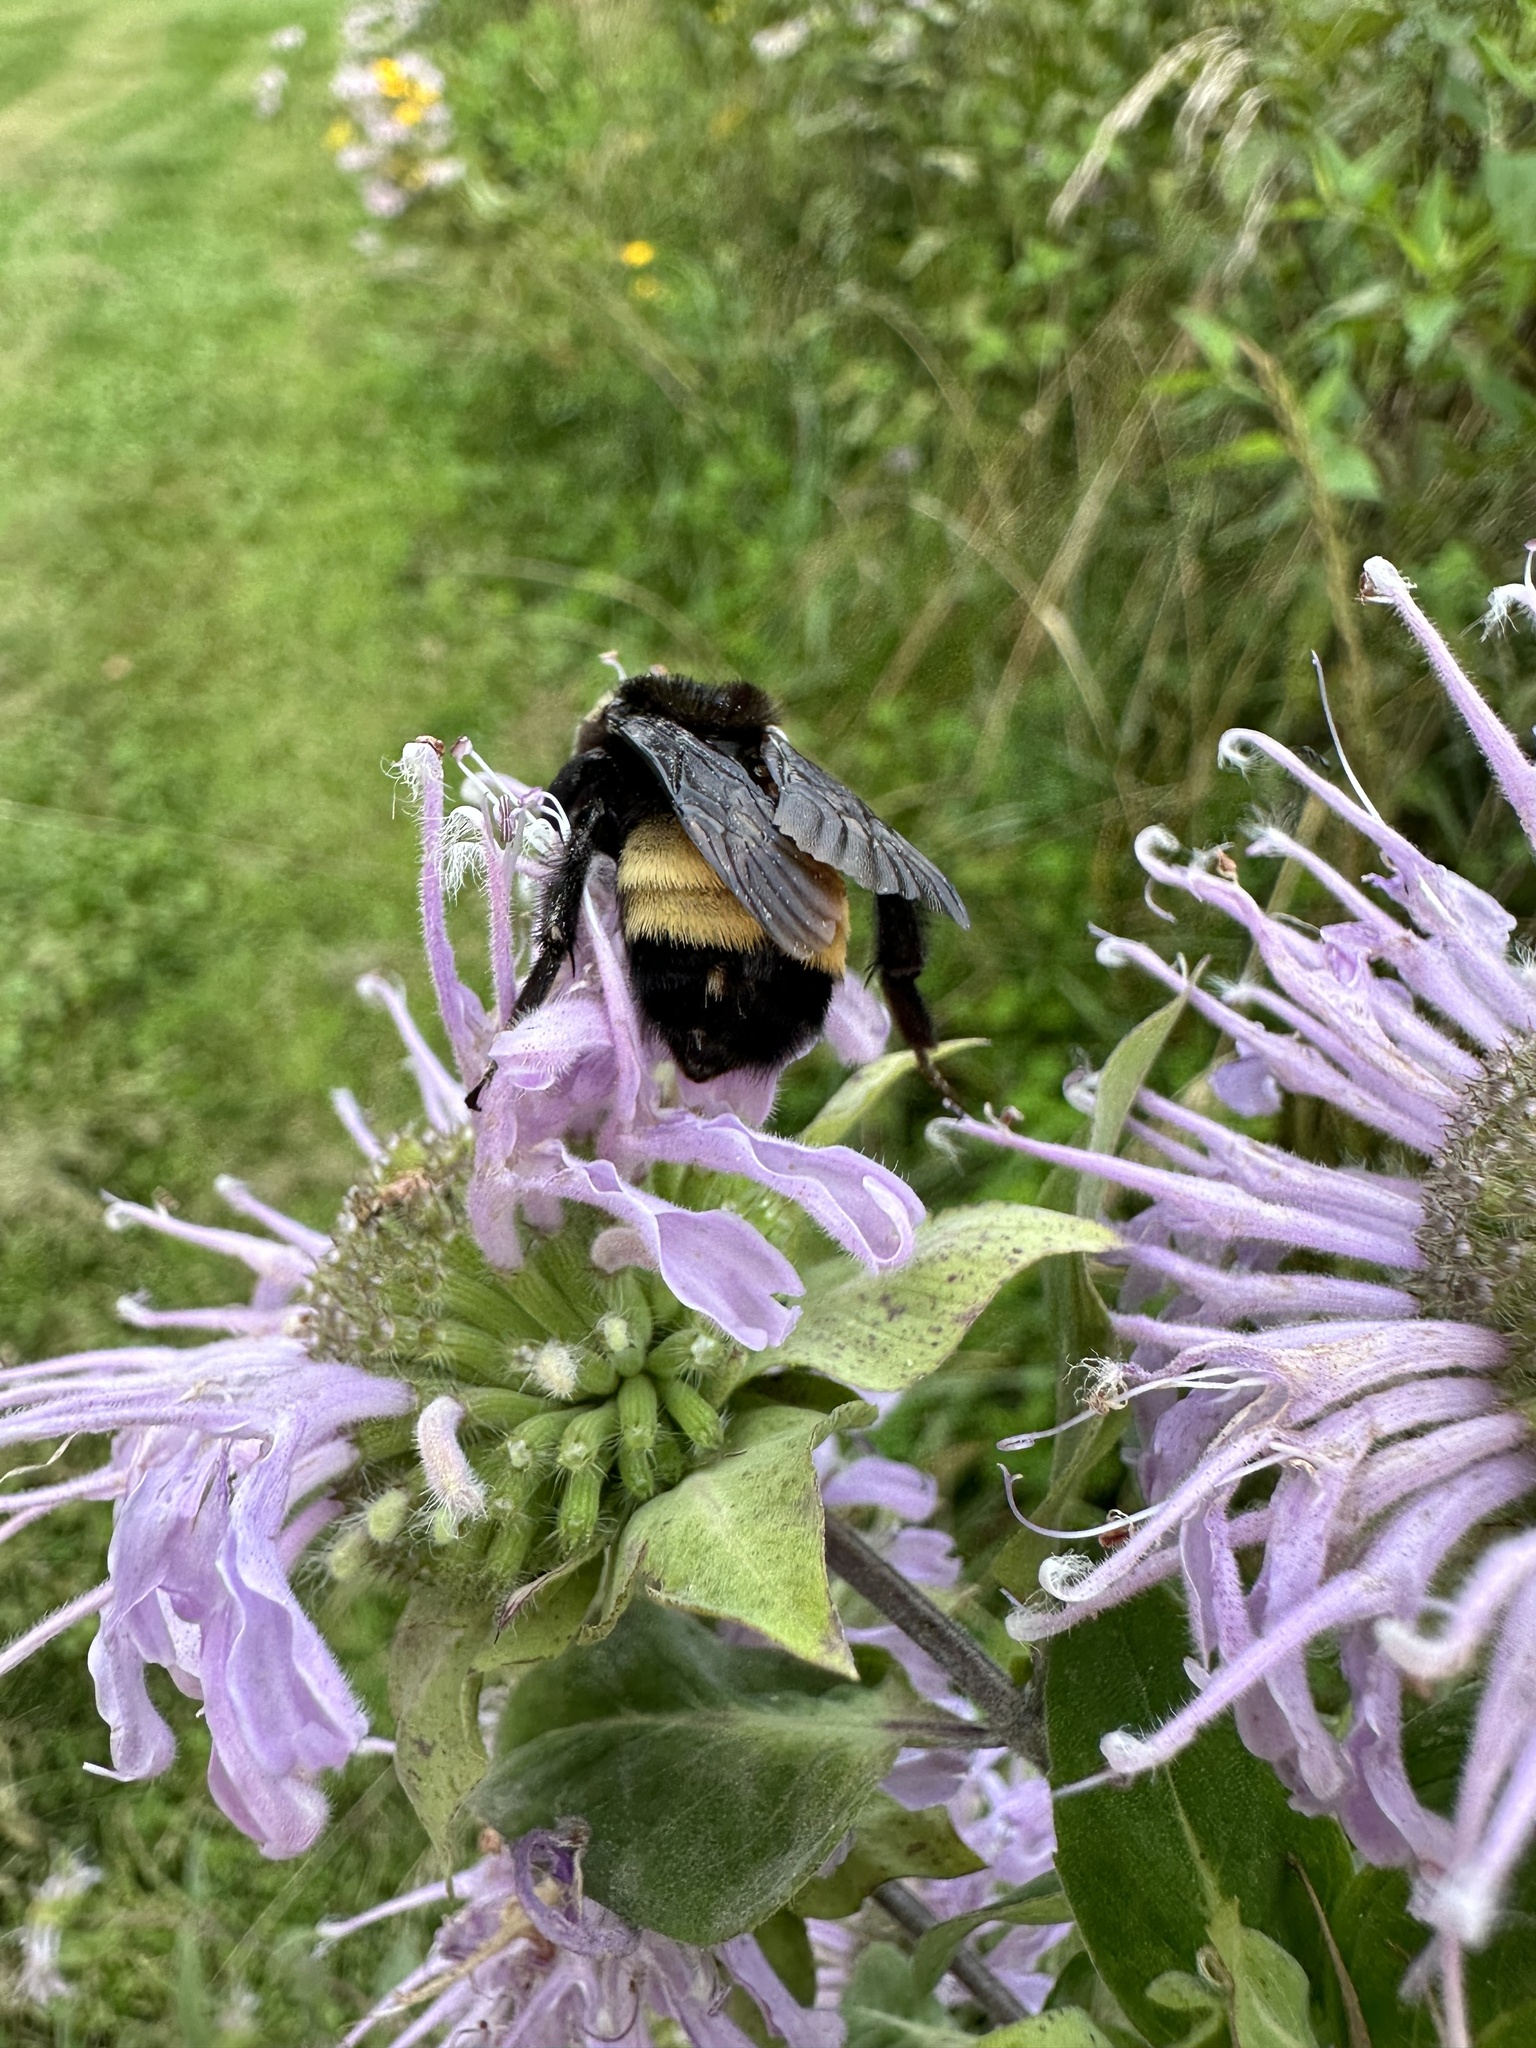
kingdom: Animalia
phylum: Arthropoda
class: Insecta
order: Hymenoptera
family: Apidae
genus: Bombus
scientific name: Bombus auricomus
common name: Black and gold bumble bee
